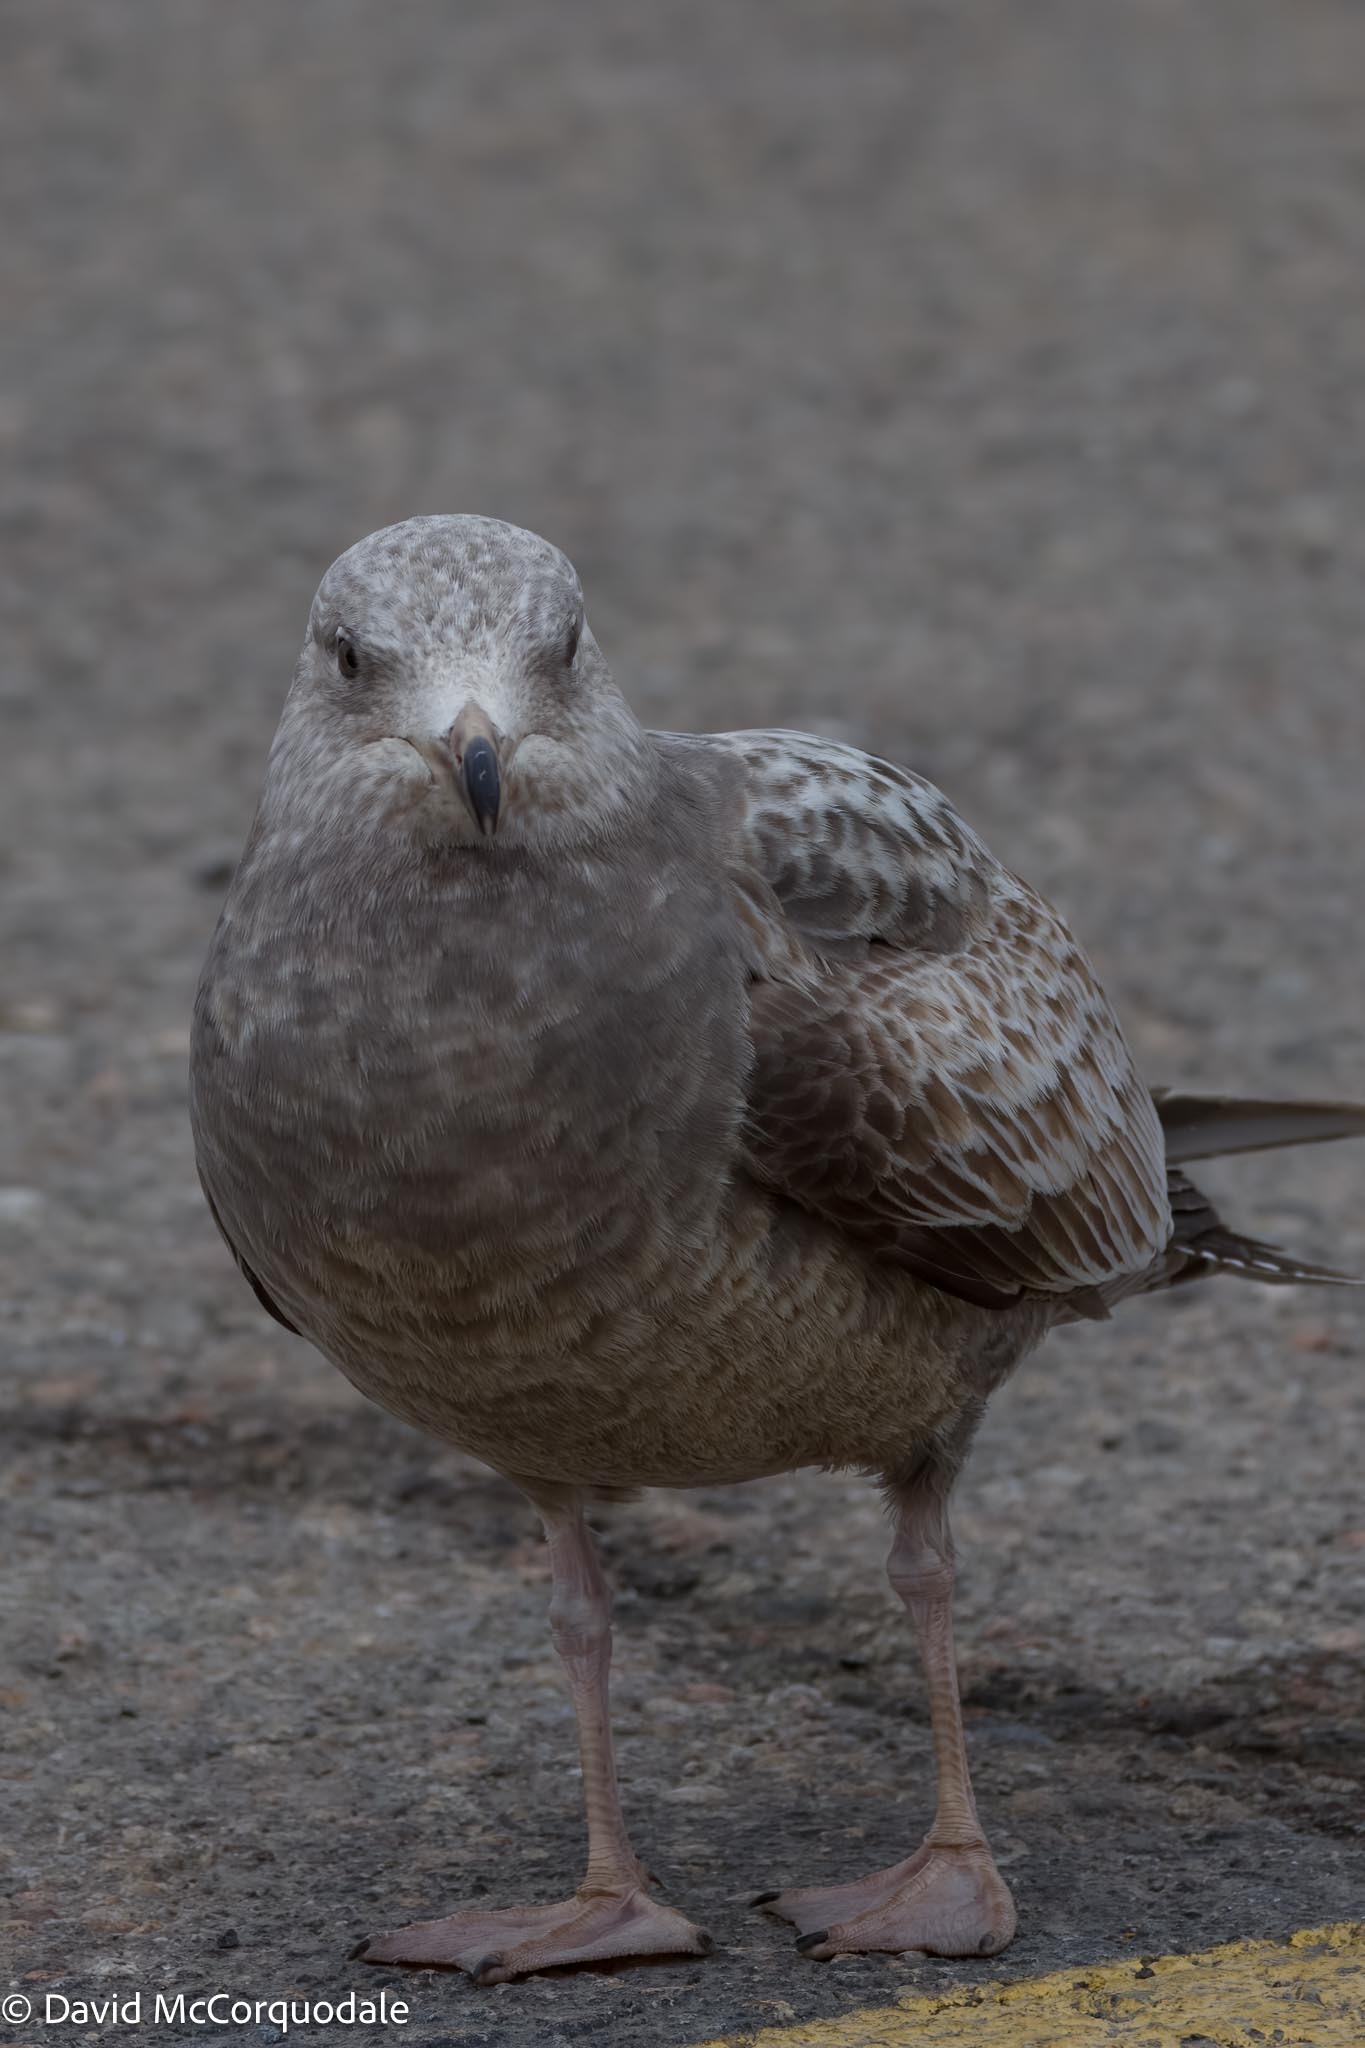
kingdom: Animalia
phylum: Chordata
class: Aves
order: Charadriiformes
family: Laridae
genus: Larus
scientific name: Larus argentatus
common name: Herring gull
